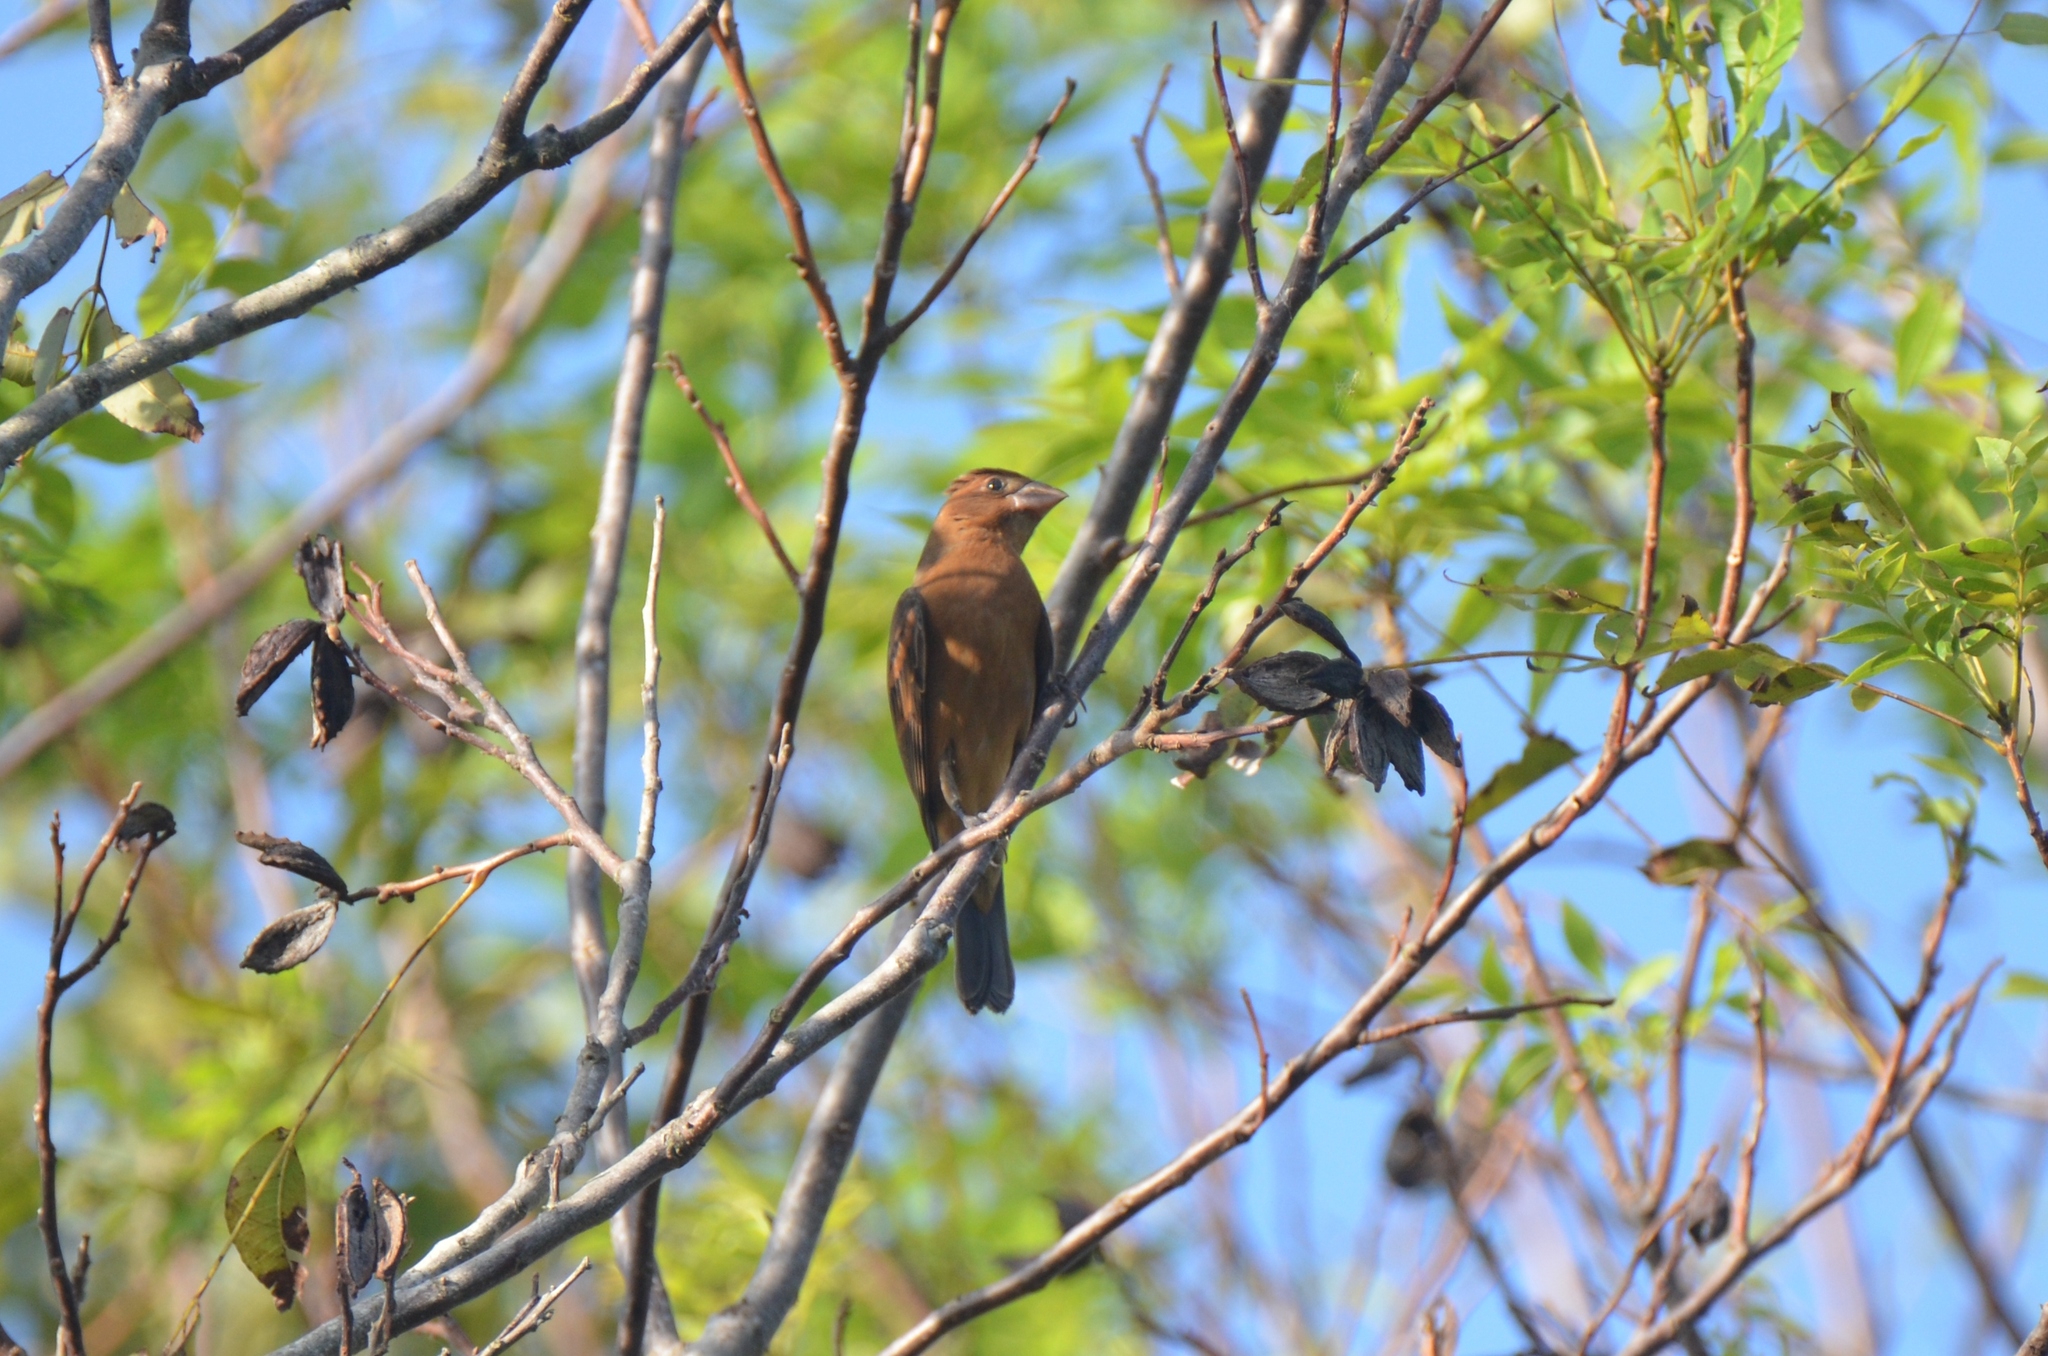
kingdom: Animalia
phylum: Chordata
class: Aves
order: Passeriformes
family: Cardinalidae
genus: Passerina
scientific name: Passerina caerulea
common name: Blue grosbeak
